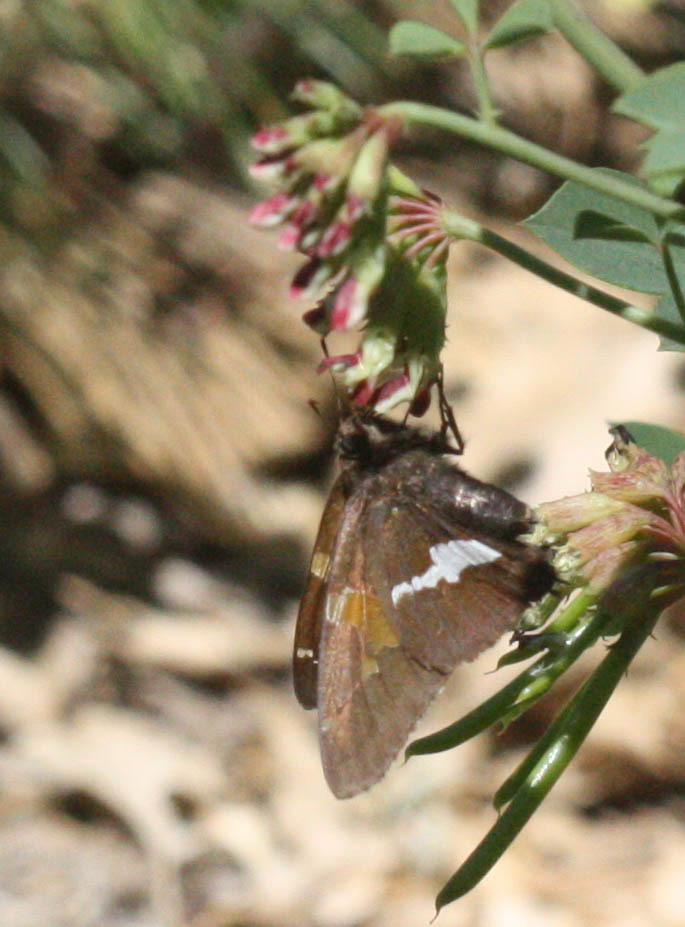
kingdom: Animalia
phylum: Arthropoda
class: Insecta
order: Lepidoptera
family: Hesperiidae
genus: Epargyreus
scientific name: Epargyreus clarus
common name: Silver-spotted skipper
